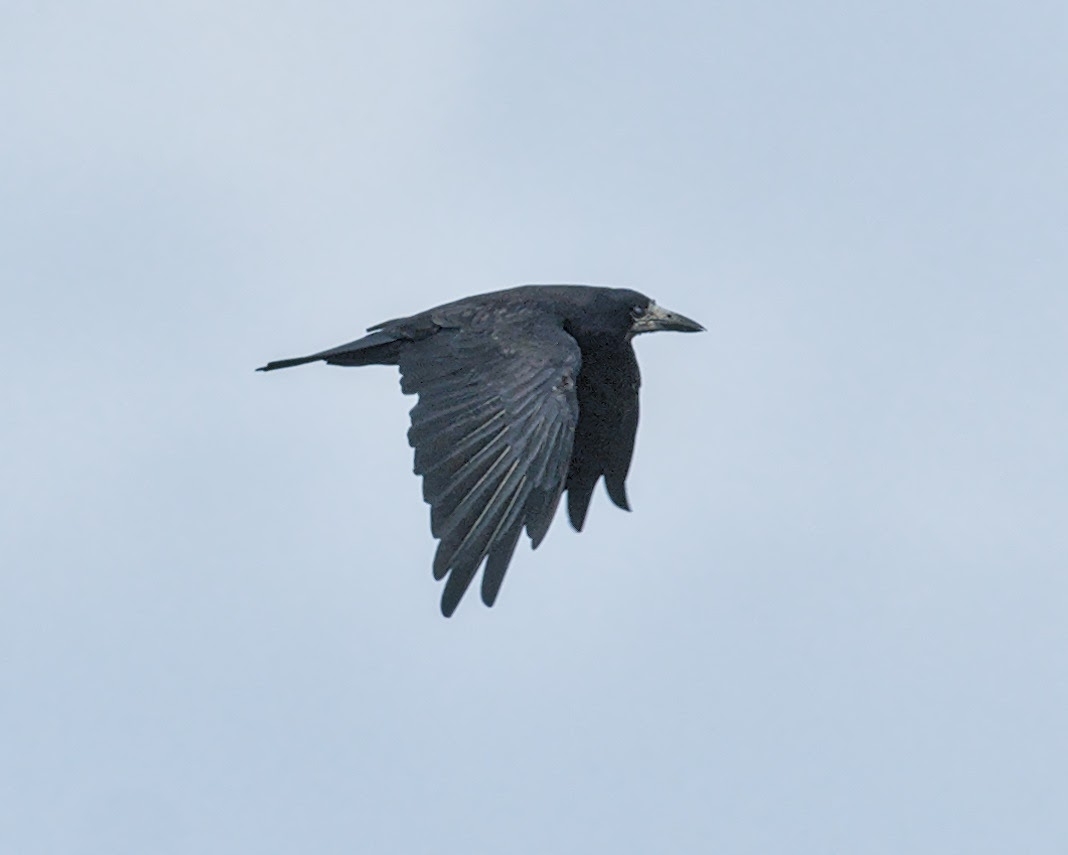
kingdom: Animalia
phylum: Chordata
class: Aves
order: Passeriformes
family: Corvidae
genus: Corvus
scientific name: Corvus frugilegus
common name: Rook
